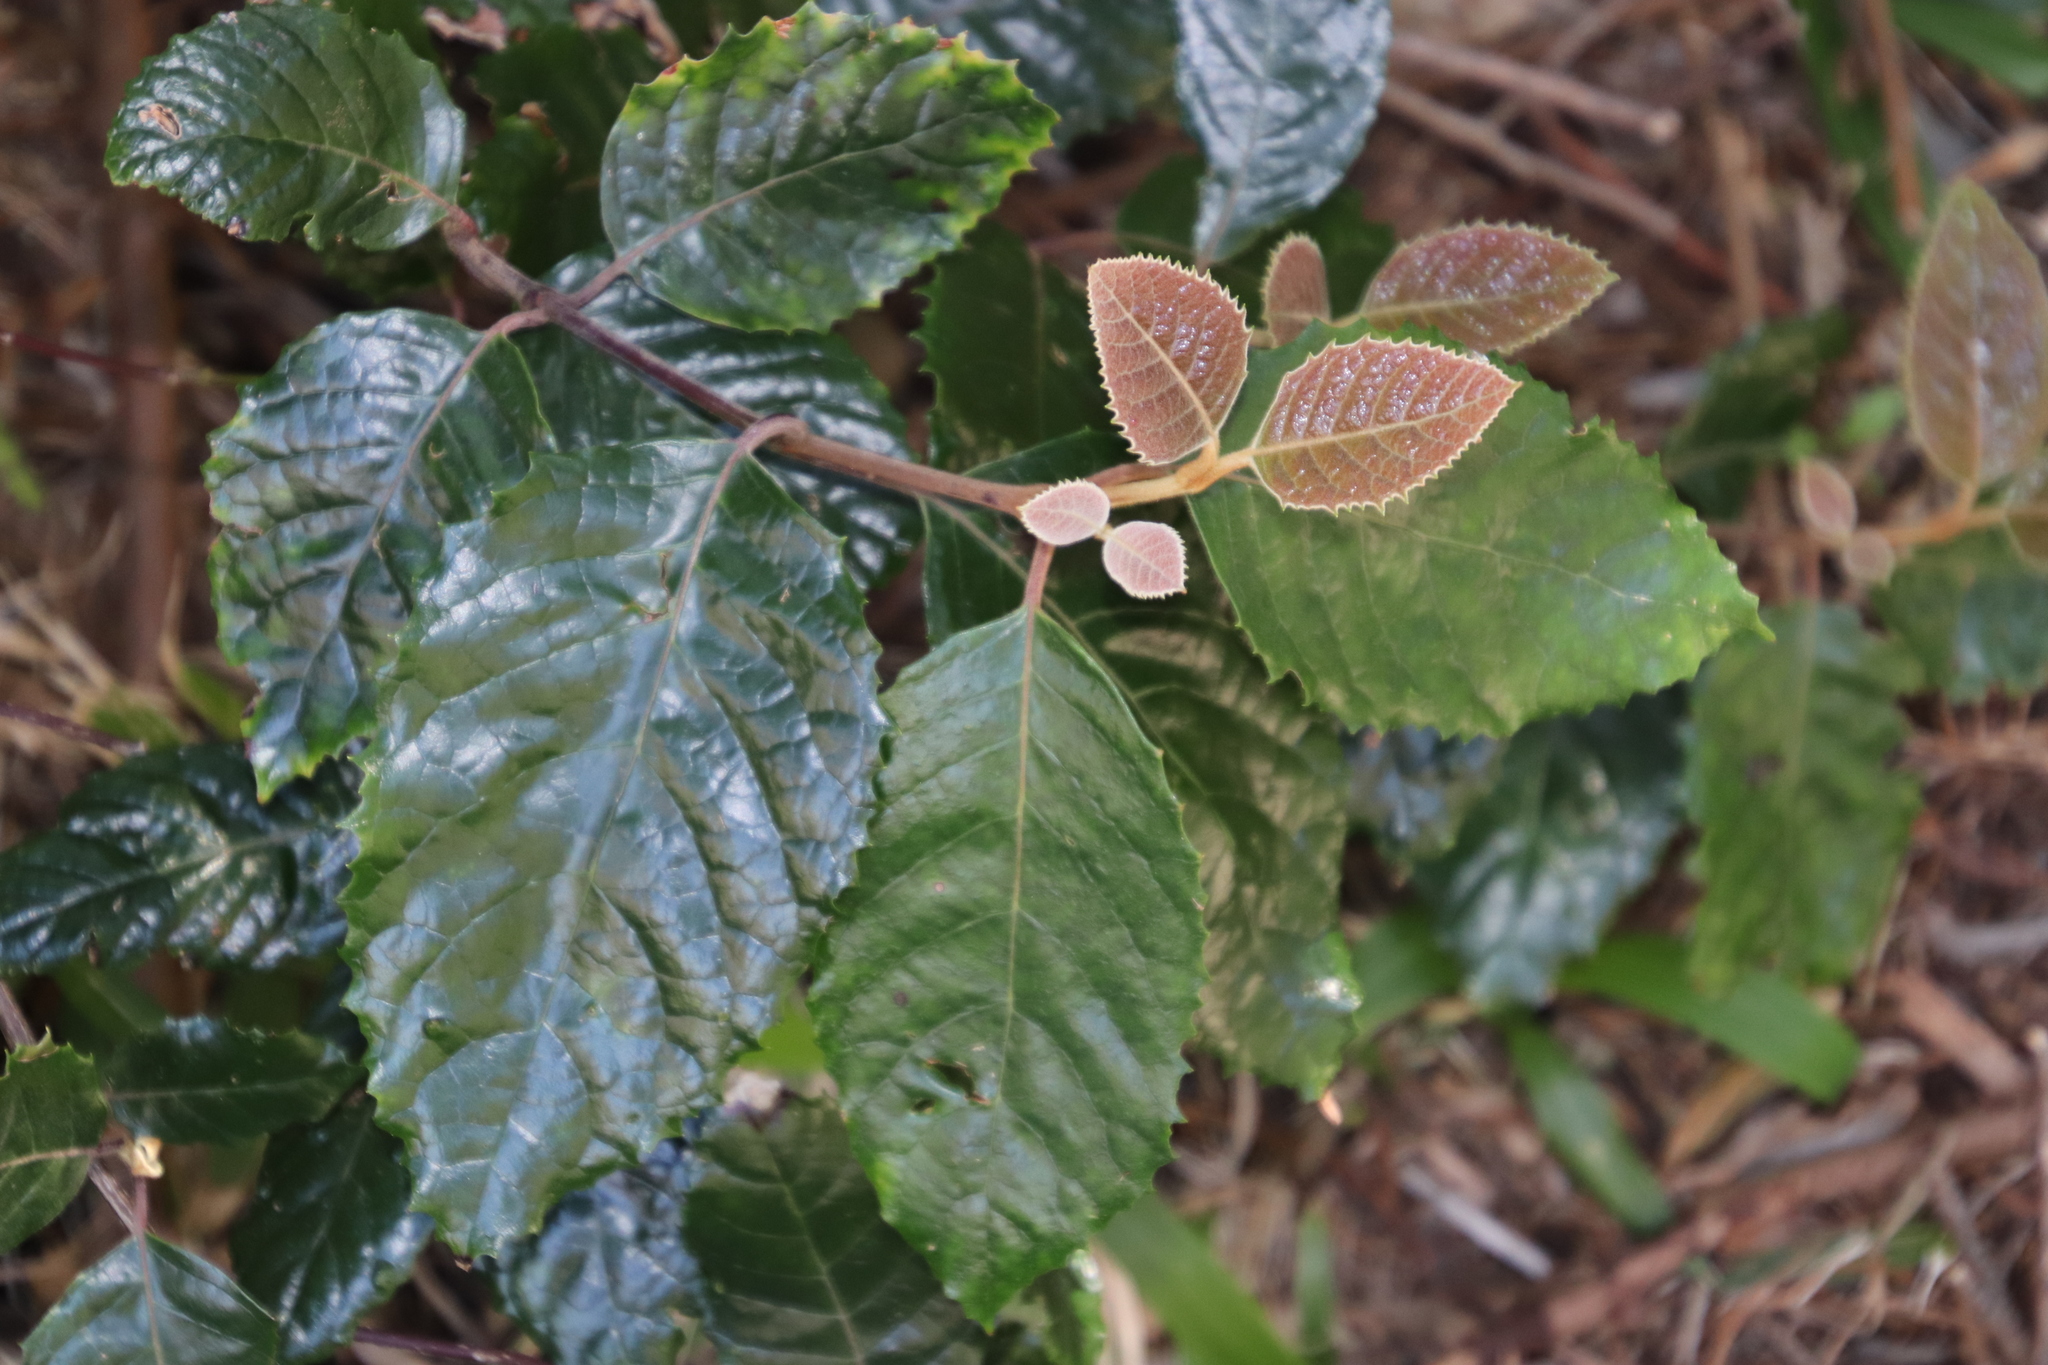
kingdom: Plantae
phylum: Tracheophyta
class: Magnoliopsida
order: Cornales
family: Curtisiaceae
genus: Curtisia
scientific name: Curtisia dentata
